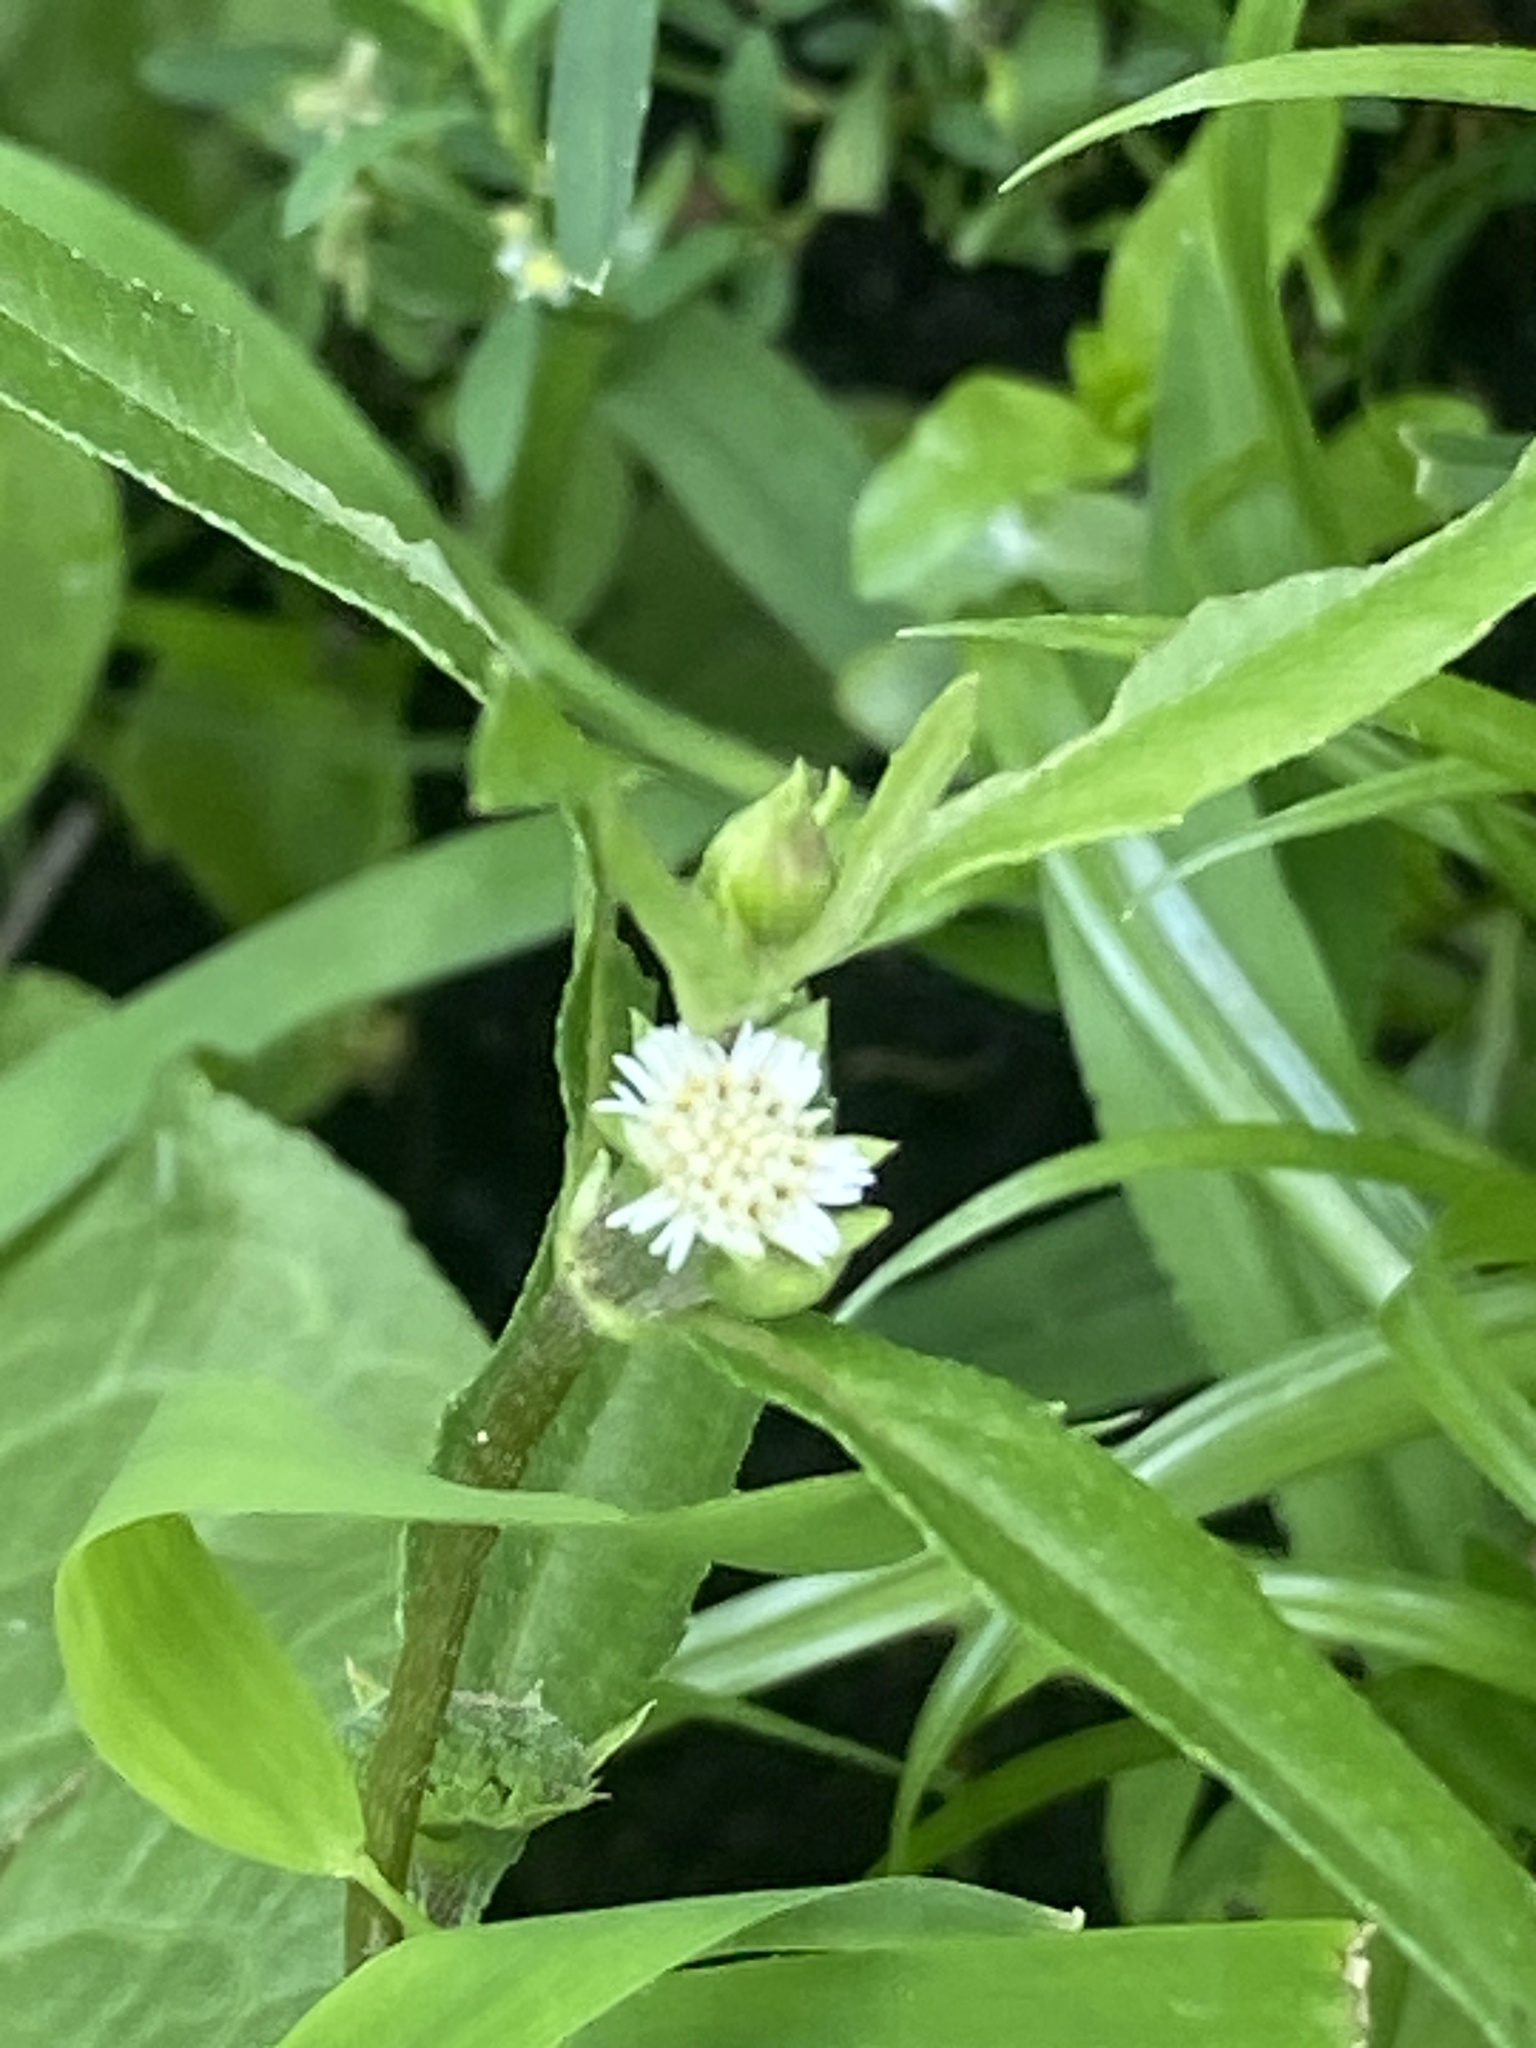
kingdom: Plantae
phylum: Tracheophyta
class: Magnoliopsida
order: Asterales
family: Asteraceae
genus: Eclipta
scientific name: Eclipta prostrata
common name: False daisy
